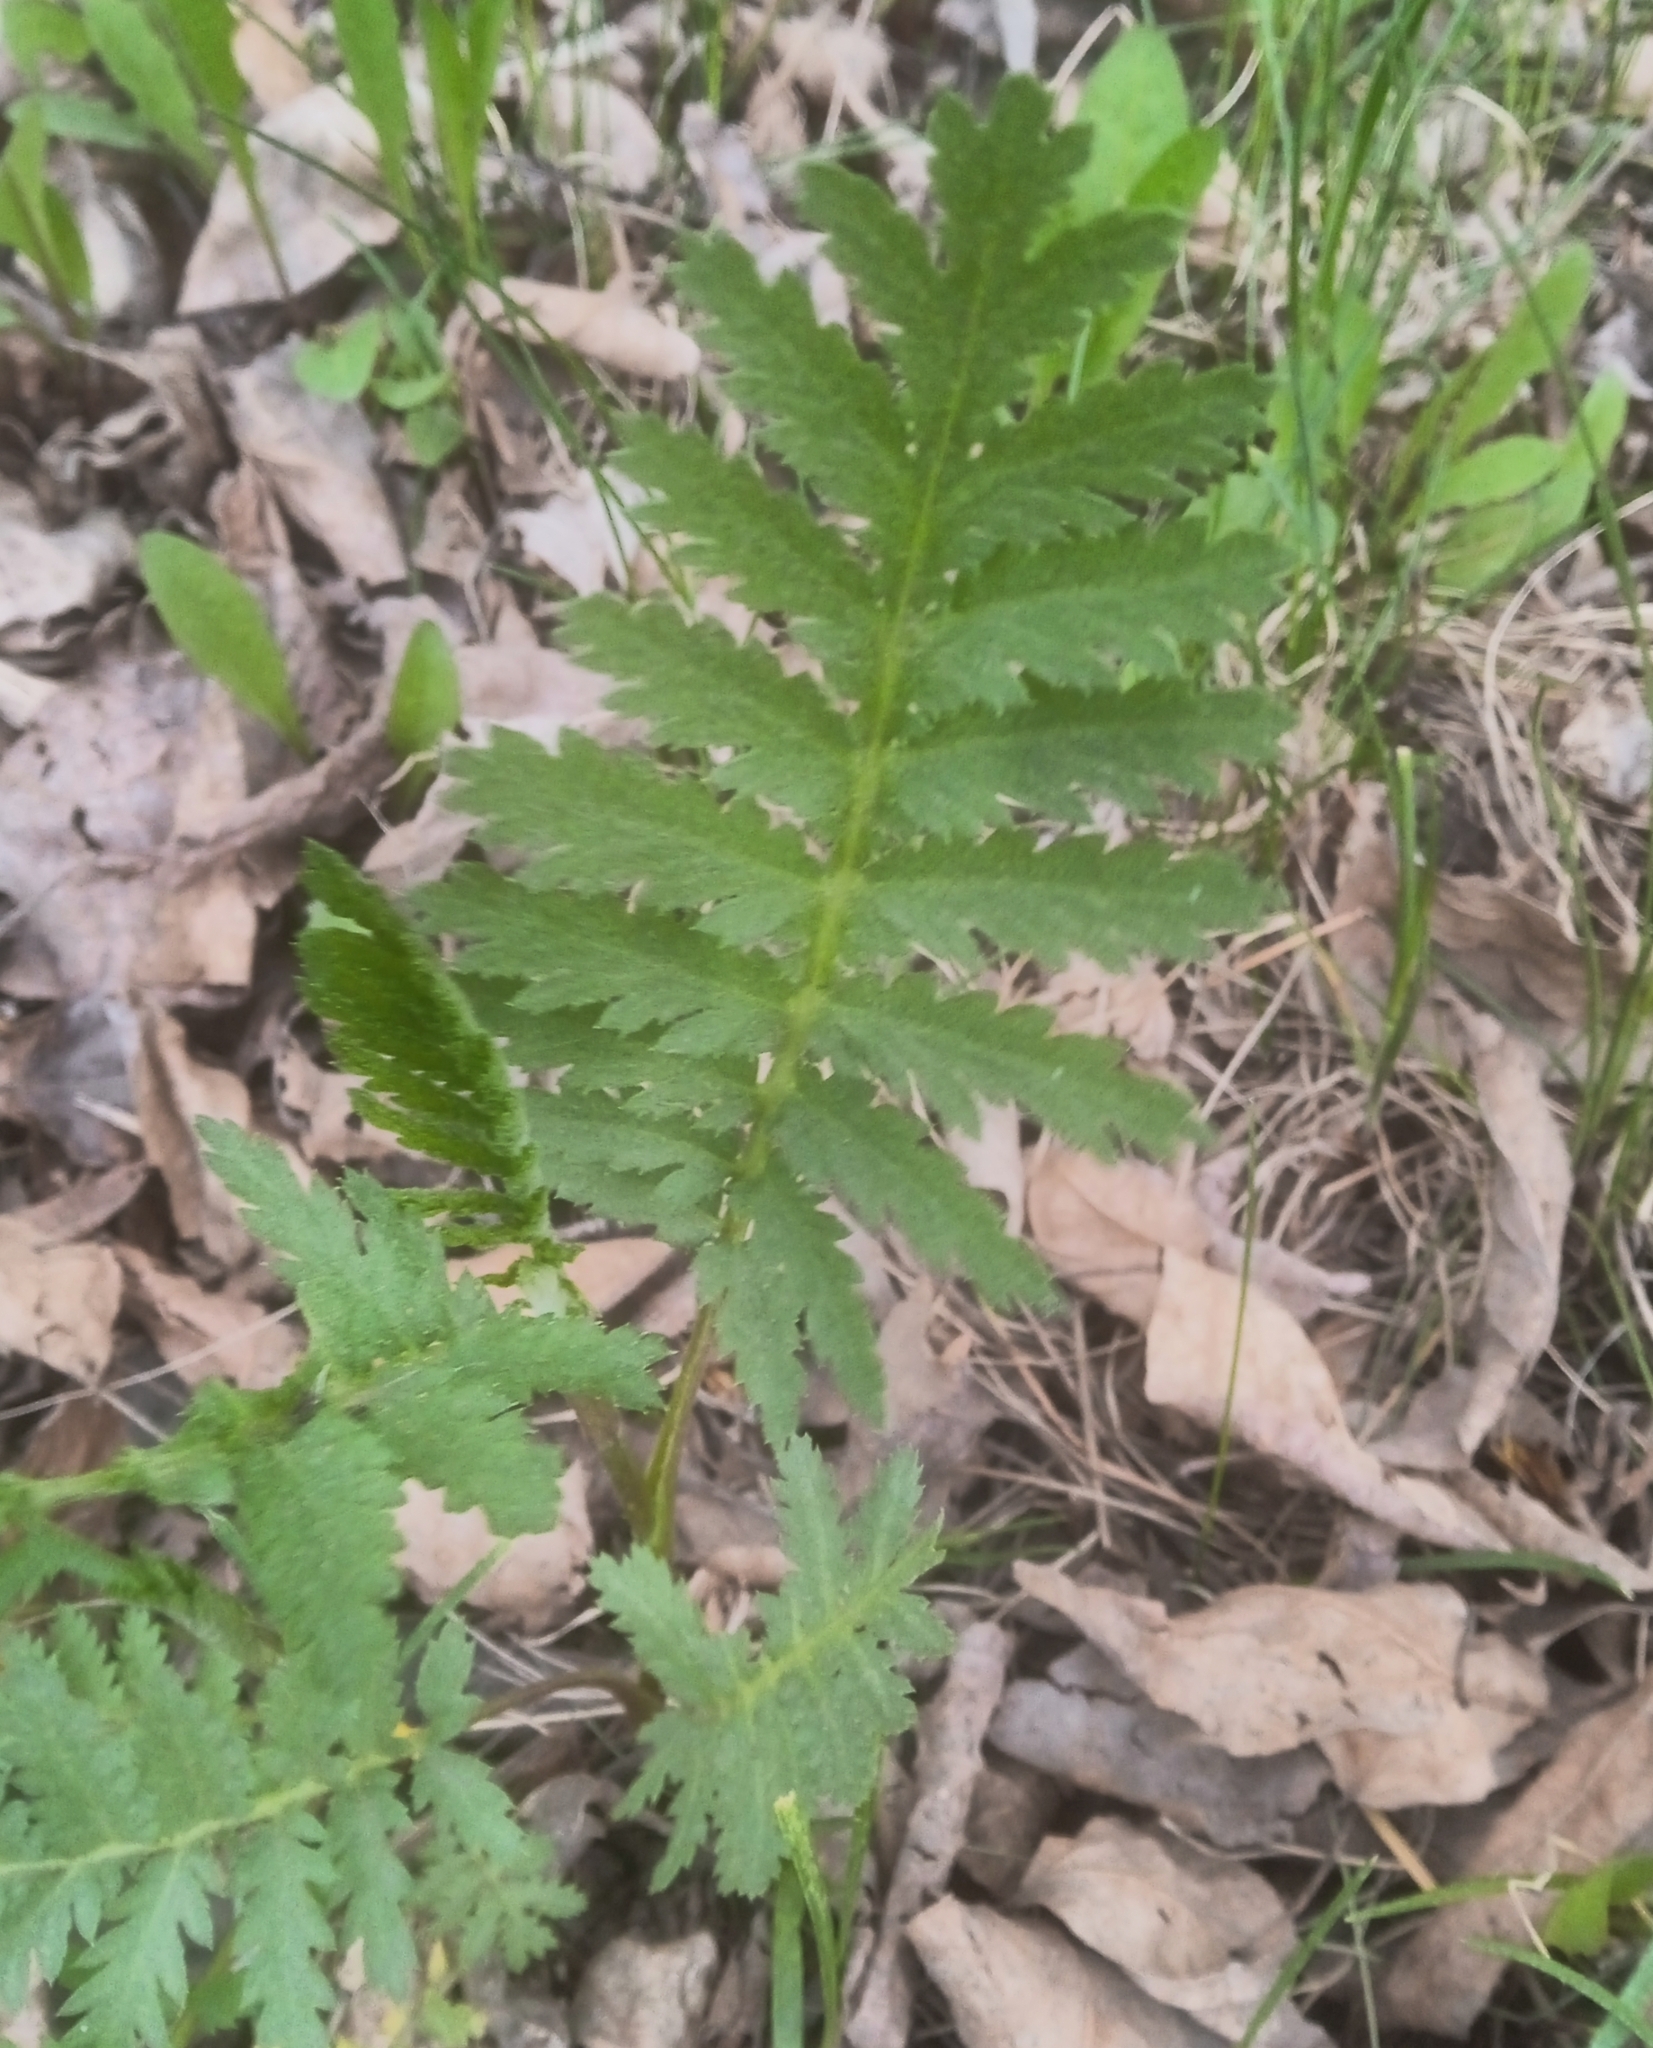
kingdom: Plantae
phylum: Tracheophyta
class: Magnoliopsida
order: Asterales
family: Asteraceae
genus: Tanacetum
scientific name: Tanacetum vulgare
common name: Common tansy
